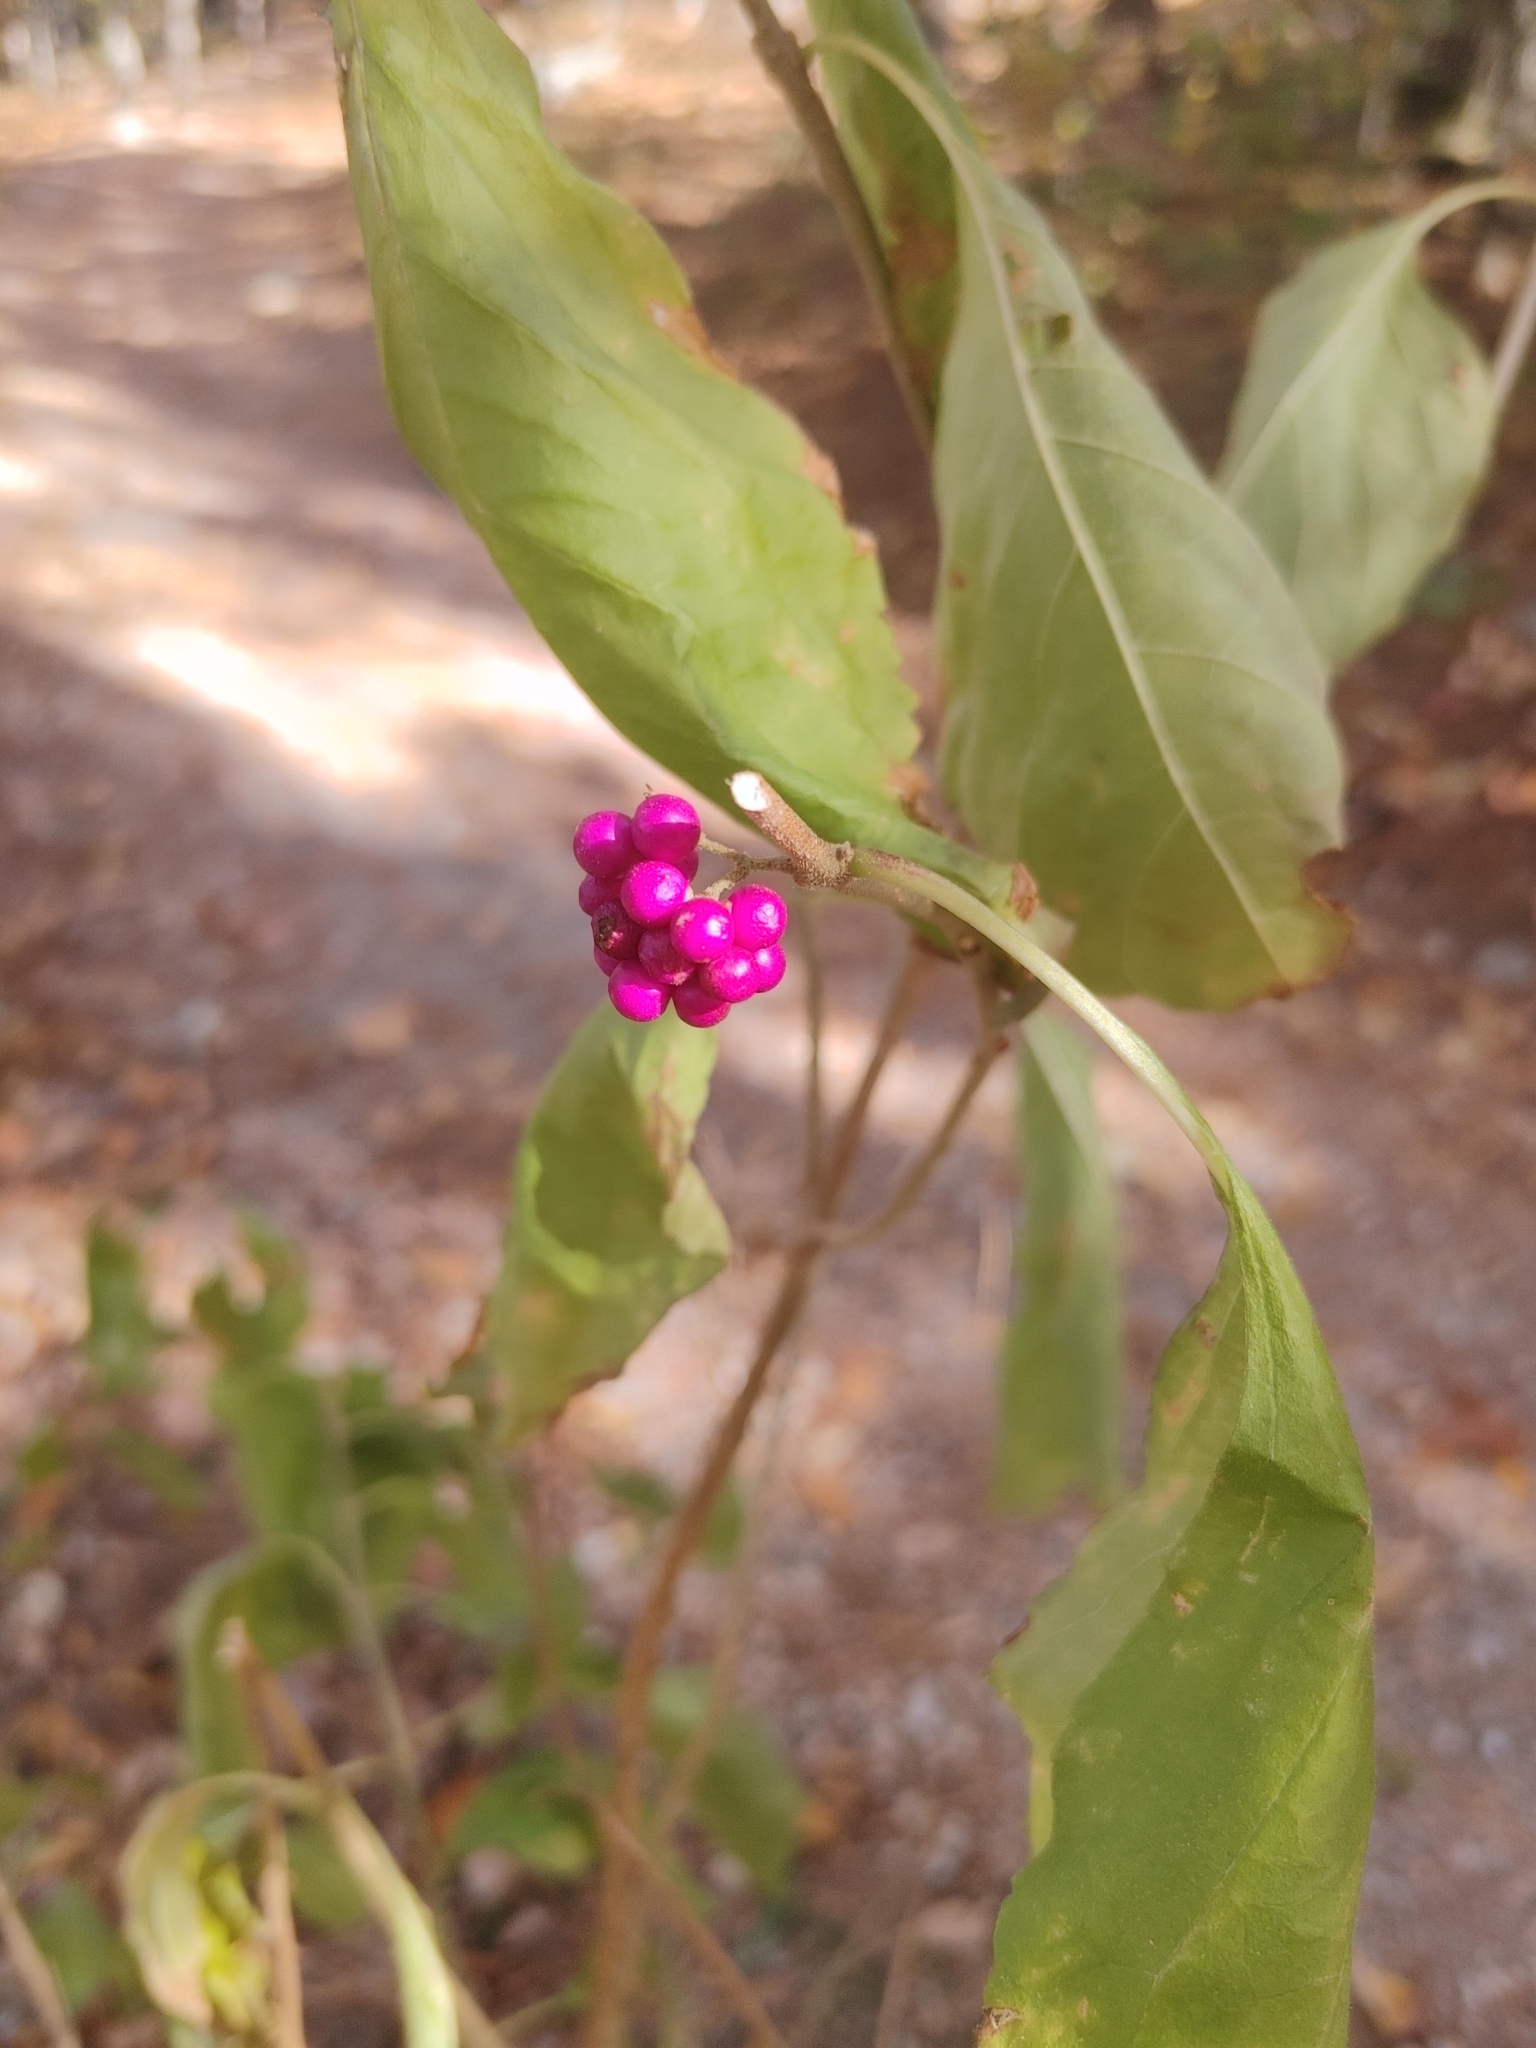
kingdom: Plantae
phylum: Tracheophyta
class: Magnoliopsida
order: Lamiales
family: Lamiaceae
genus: Callicarpa
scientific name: Callicarpa americana
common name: American beautyberry
